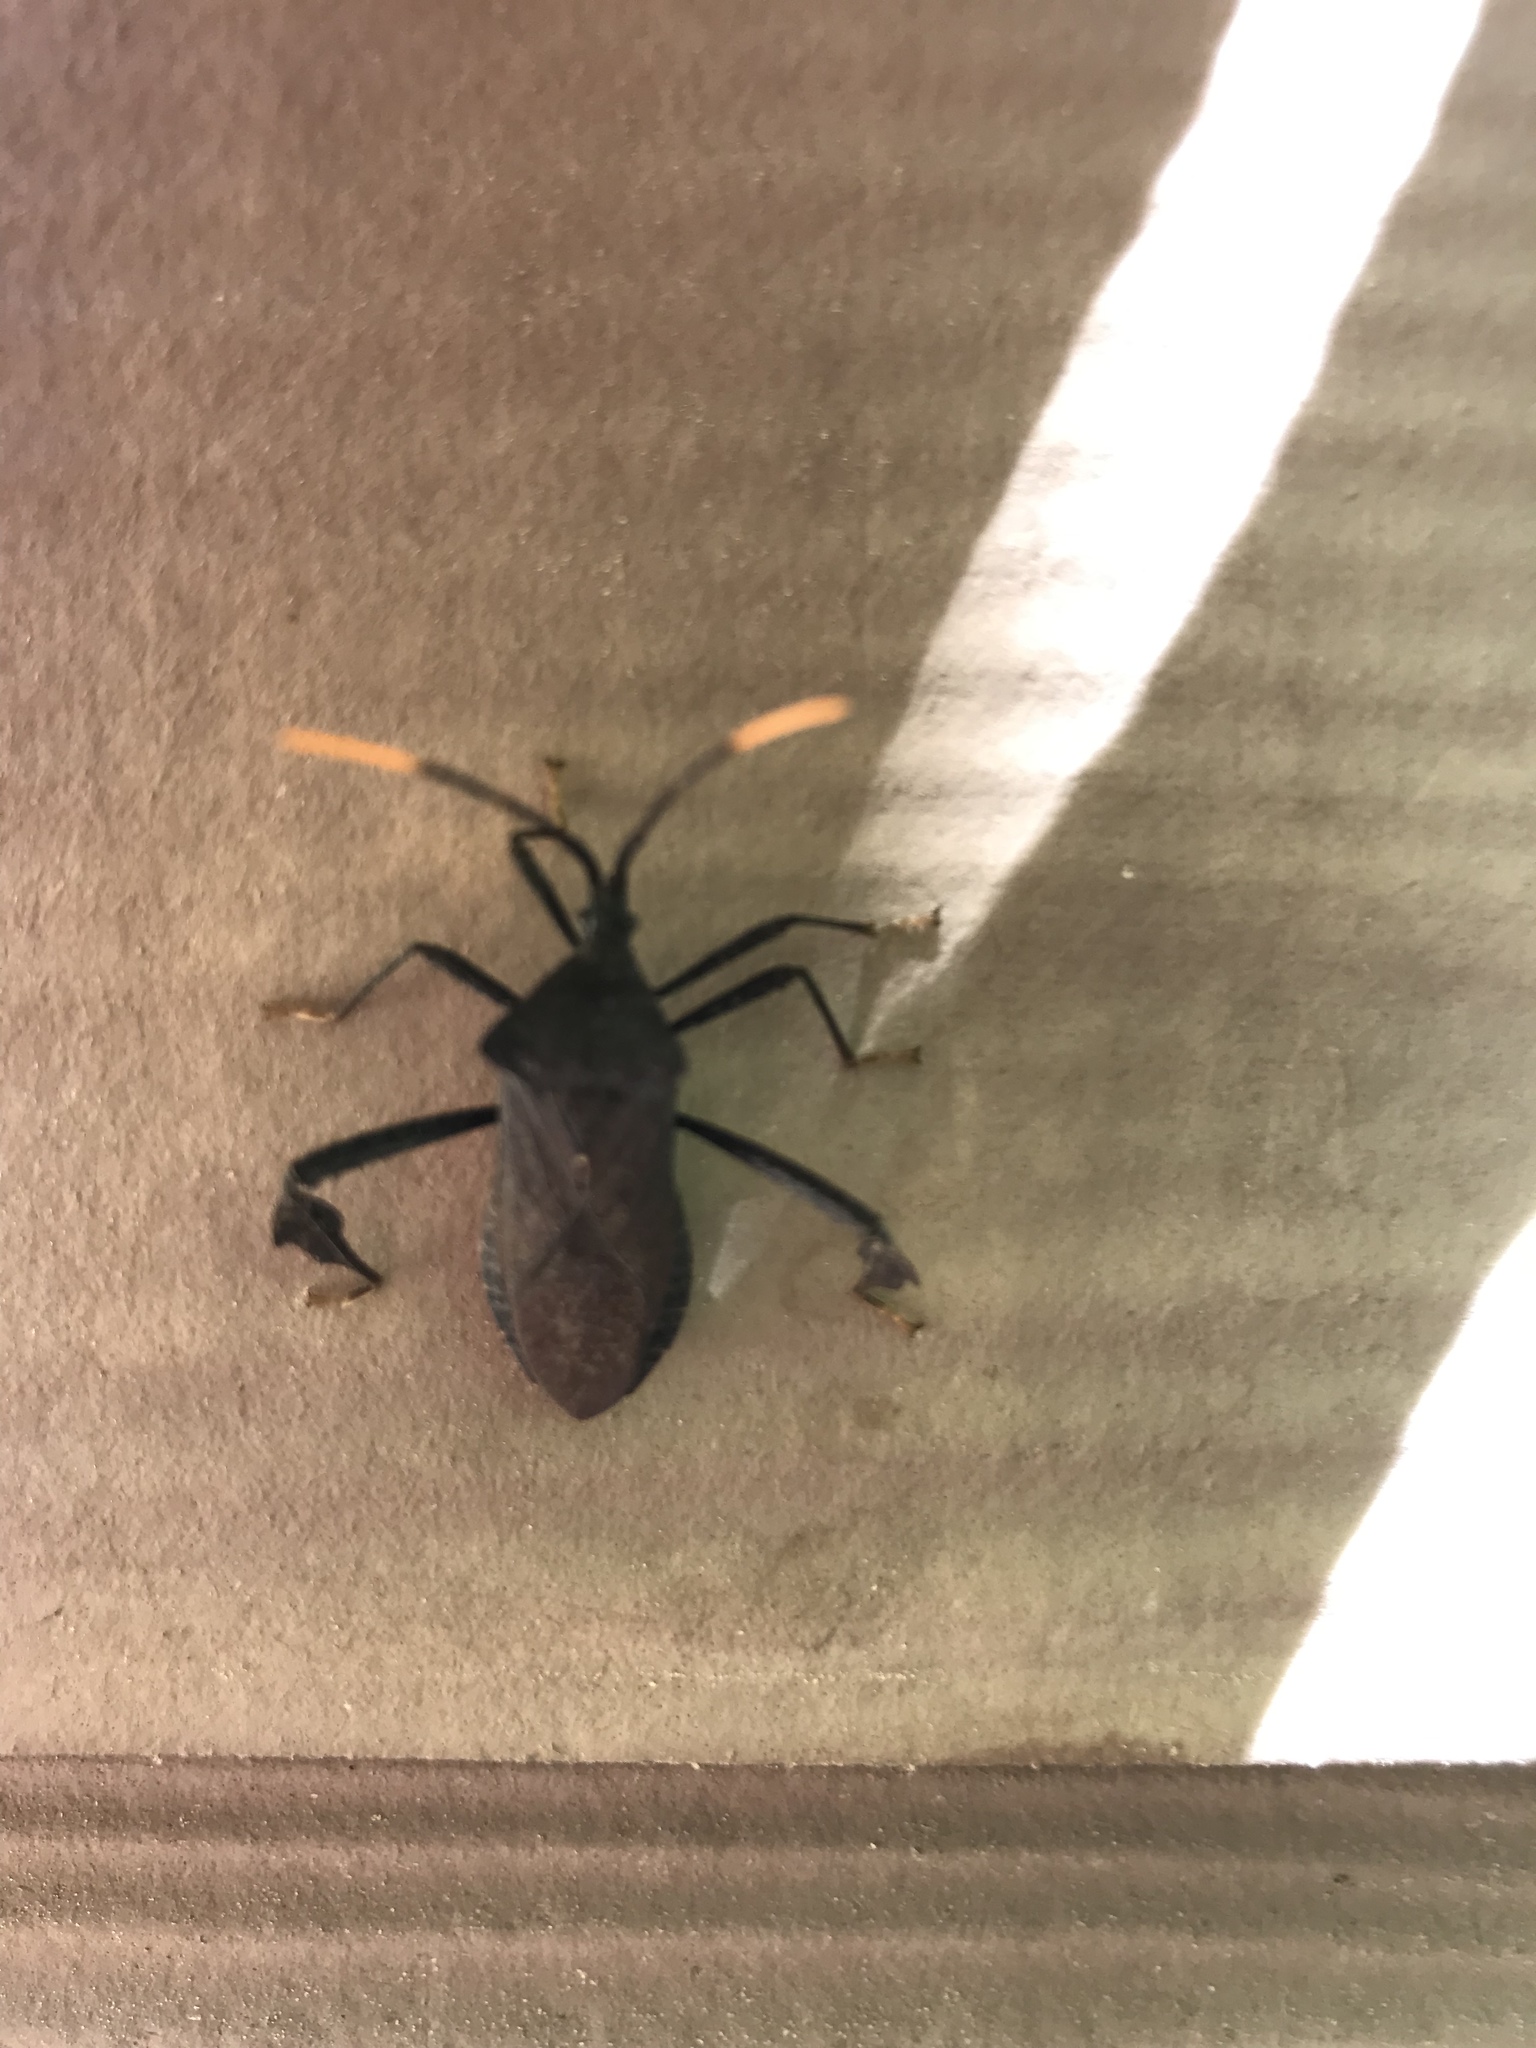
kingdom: Animalia
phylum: Arthropoda
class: Insecta
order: Hemiptera
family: Coreidae
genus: Acanthocephala
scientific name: Acanthocephala terminalis
